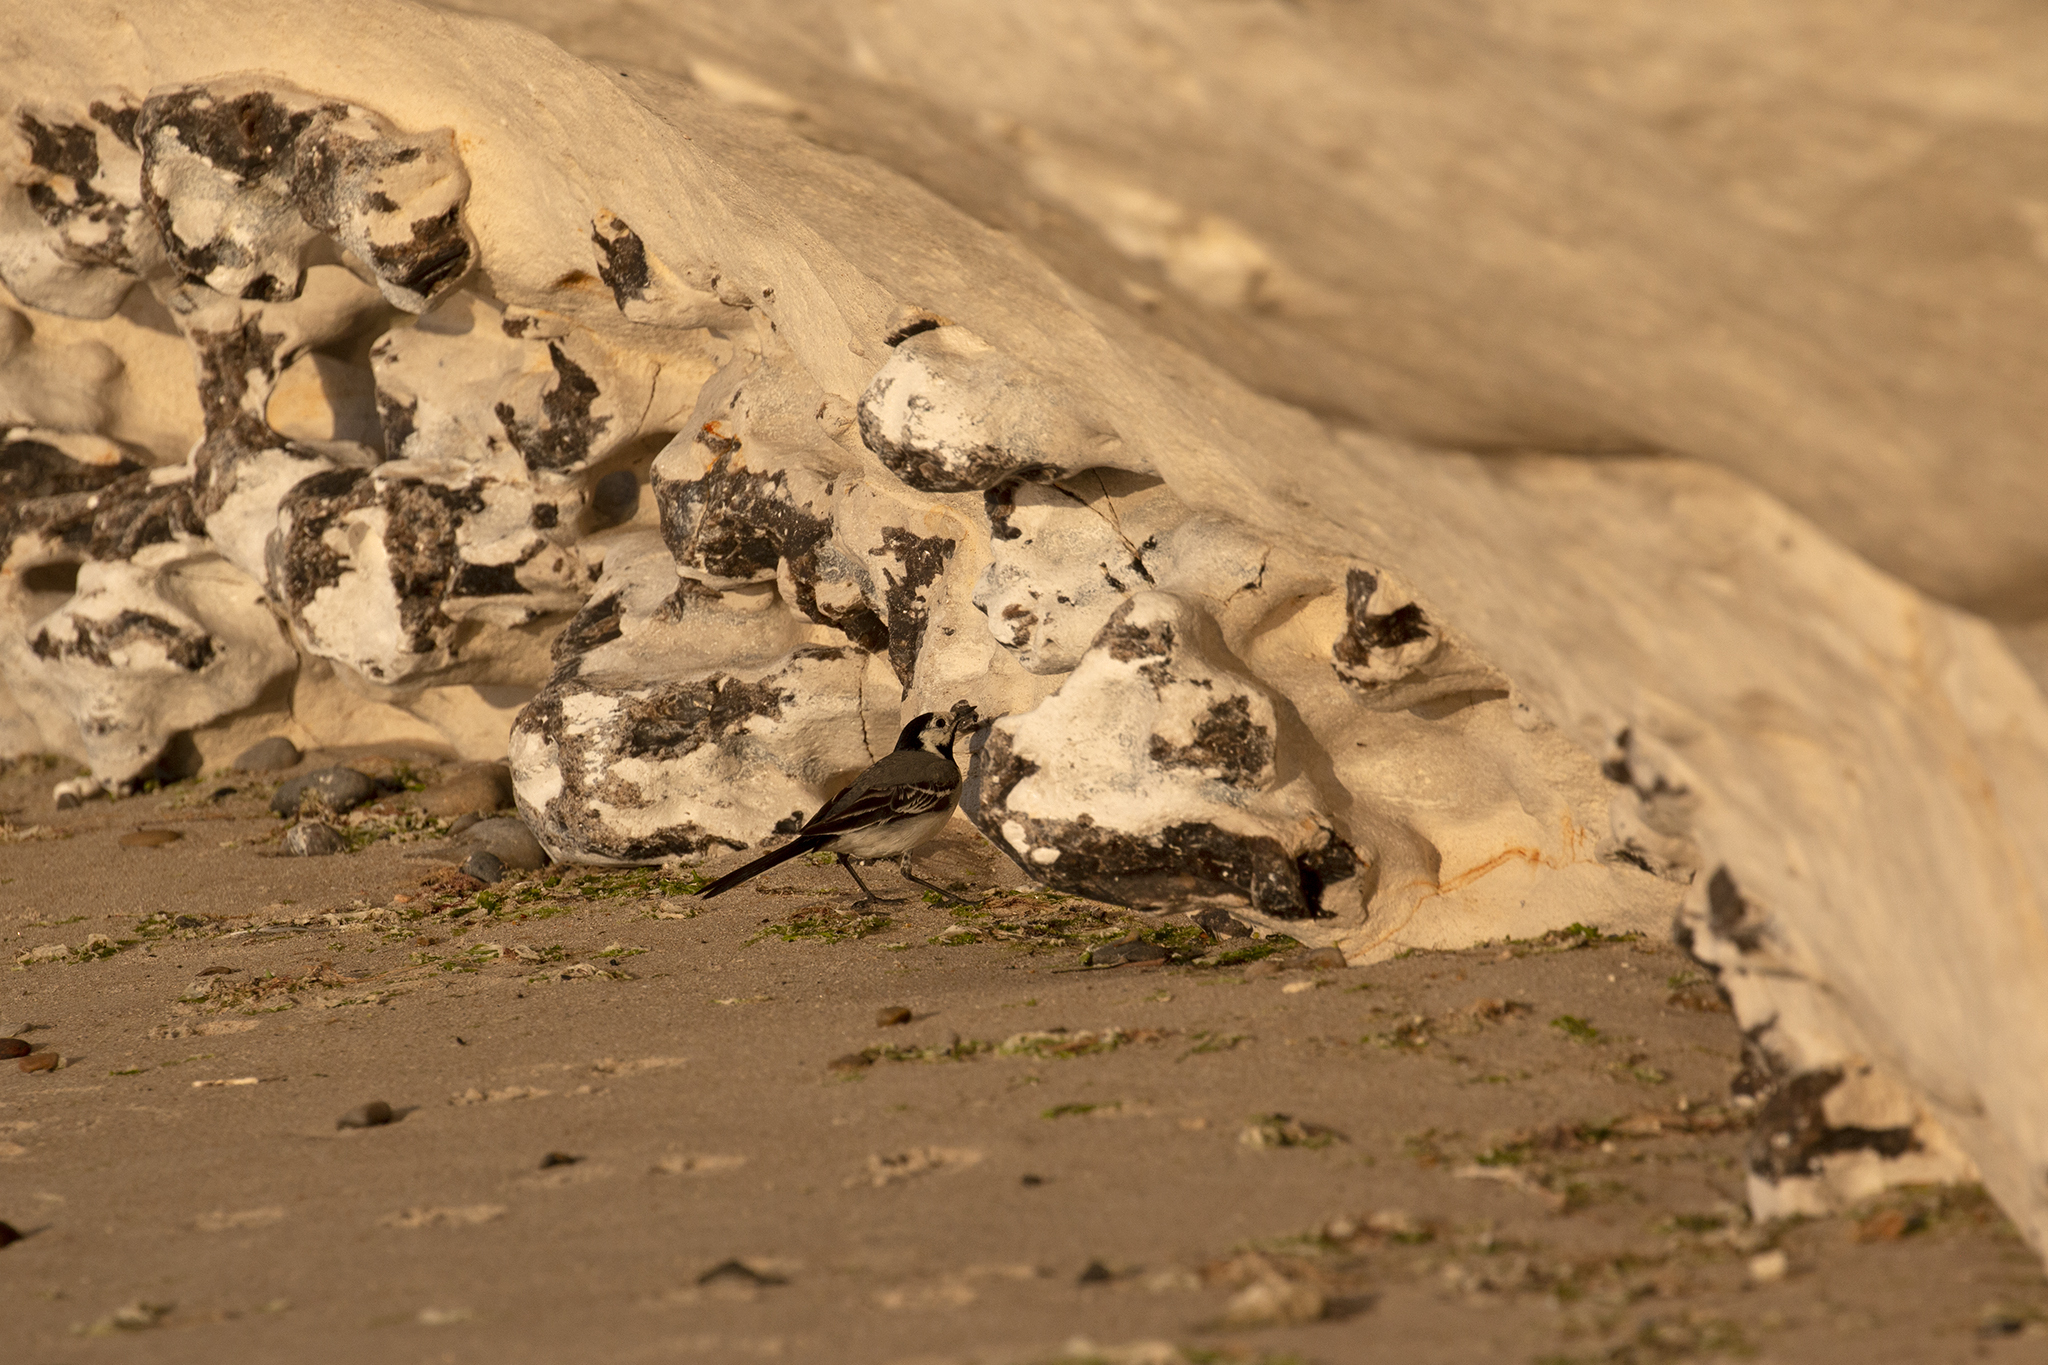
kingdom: Animalia
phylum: Chordata
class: Aves
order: Passeriformes
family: Motacillidae
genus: Motacilla
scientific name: Motacilla alba
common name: White wagtail
